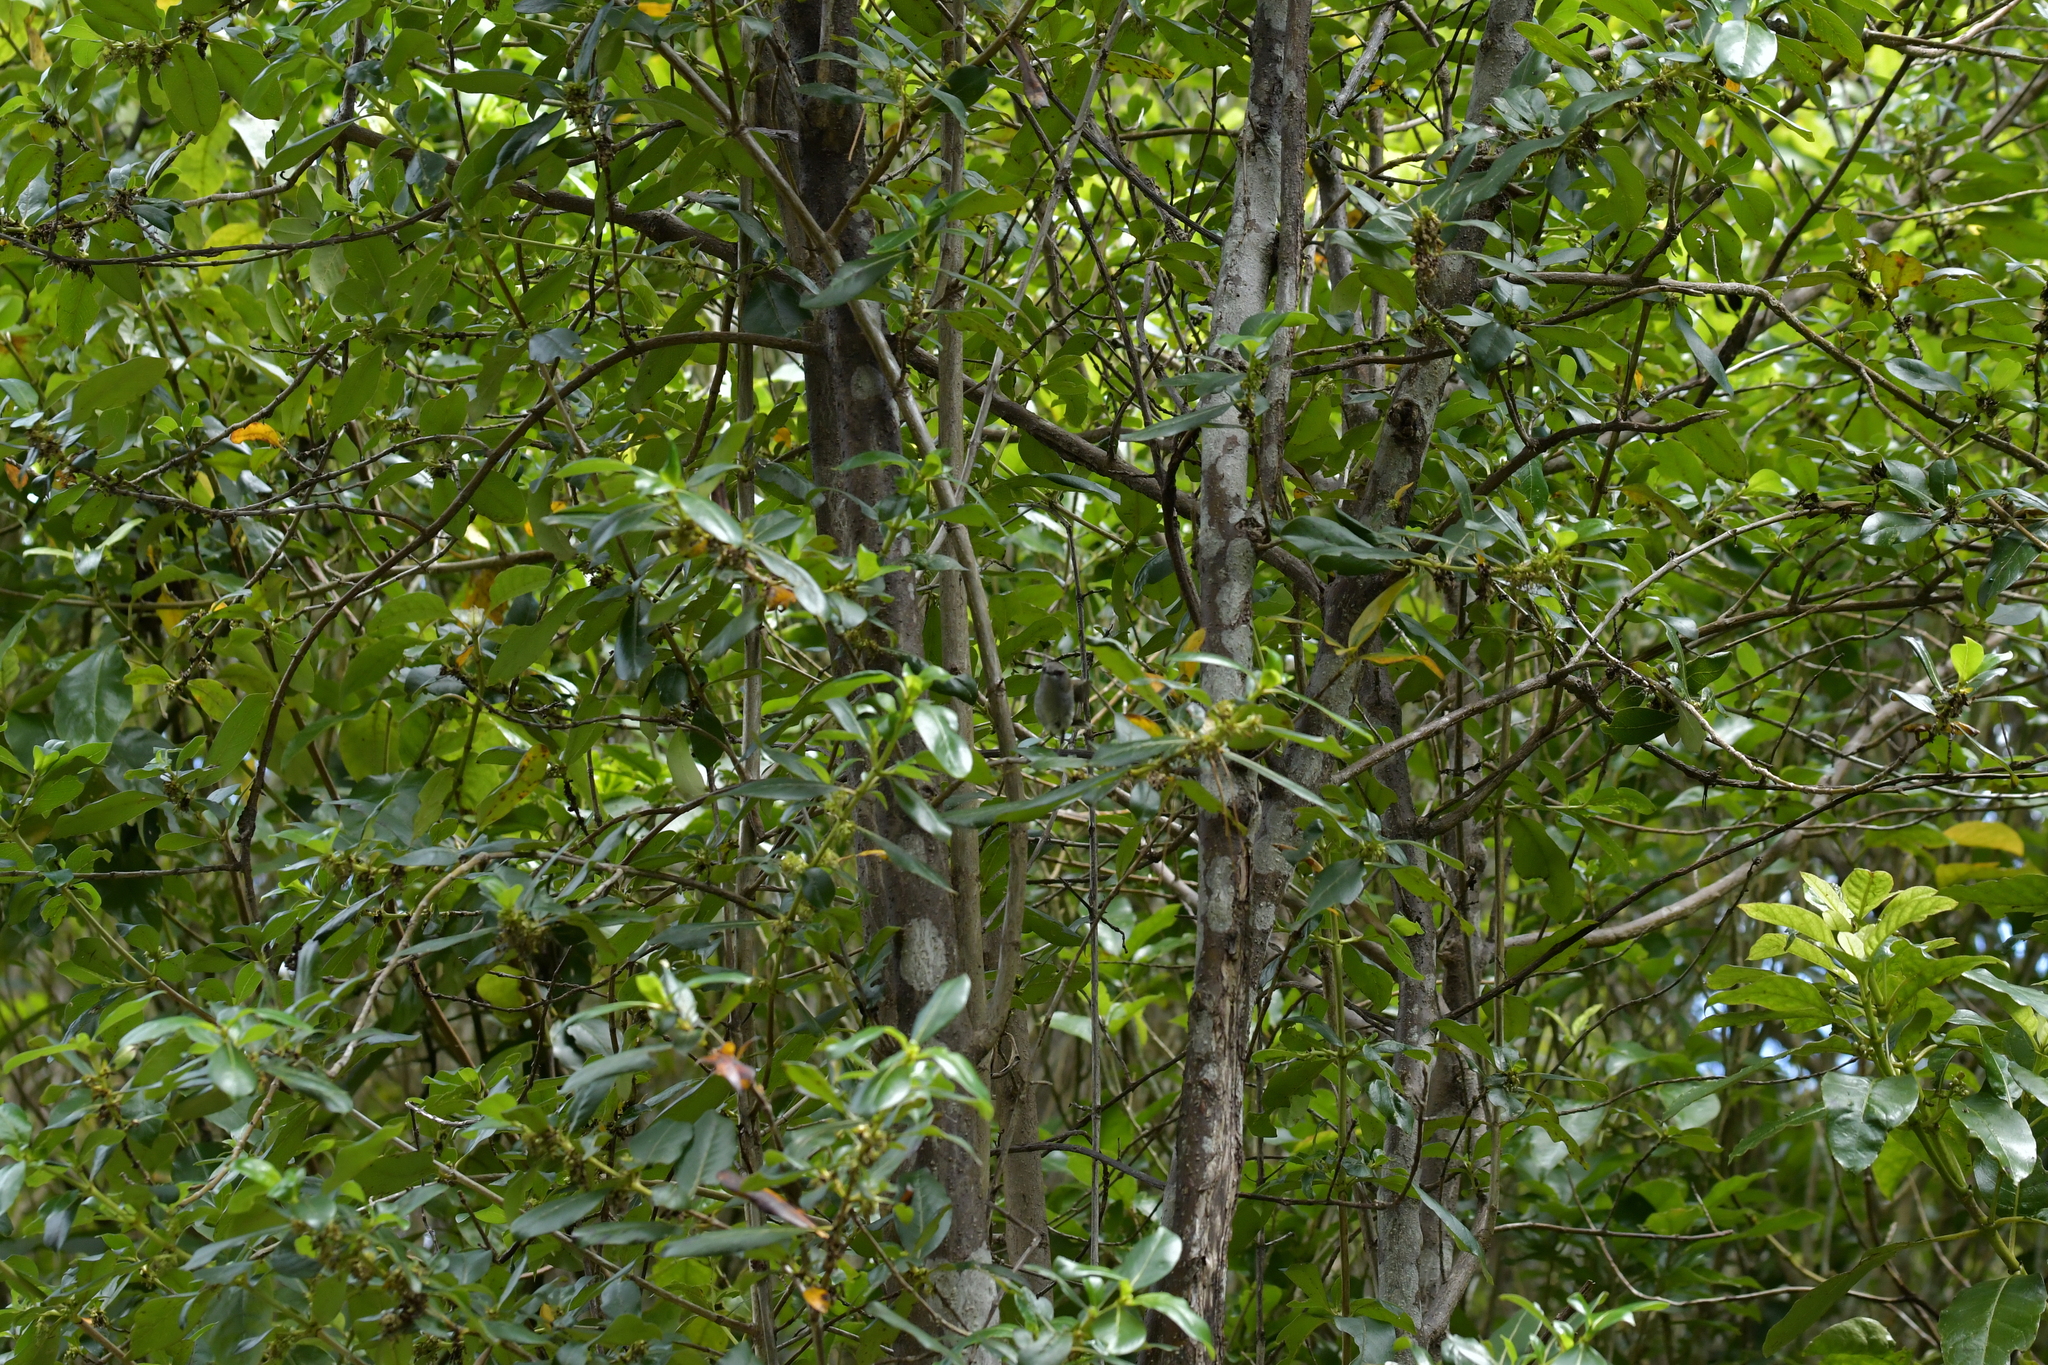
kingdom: Animalia
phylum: Chordata
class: Aves
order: Passeriformes
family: Acanthizidae
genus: Gerygone
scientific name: Gerygone igata
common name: Grey gerygone
